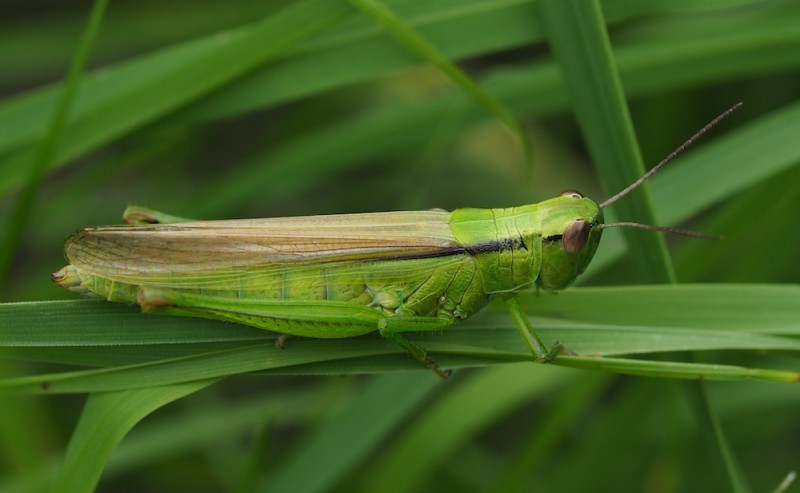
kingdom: Animalia
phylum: Arthropoda
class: Insecta
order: Orthoptera
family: Acrididae
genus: Mecostethus
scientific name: Mecostethus parapleurus
